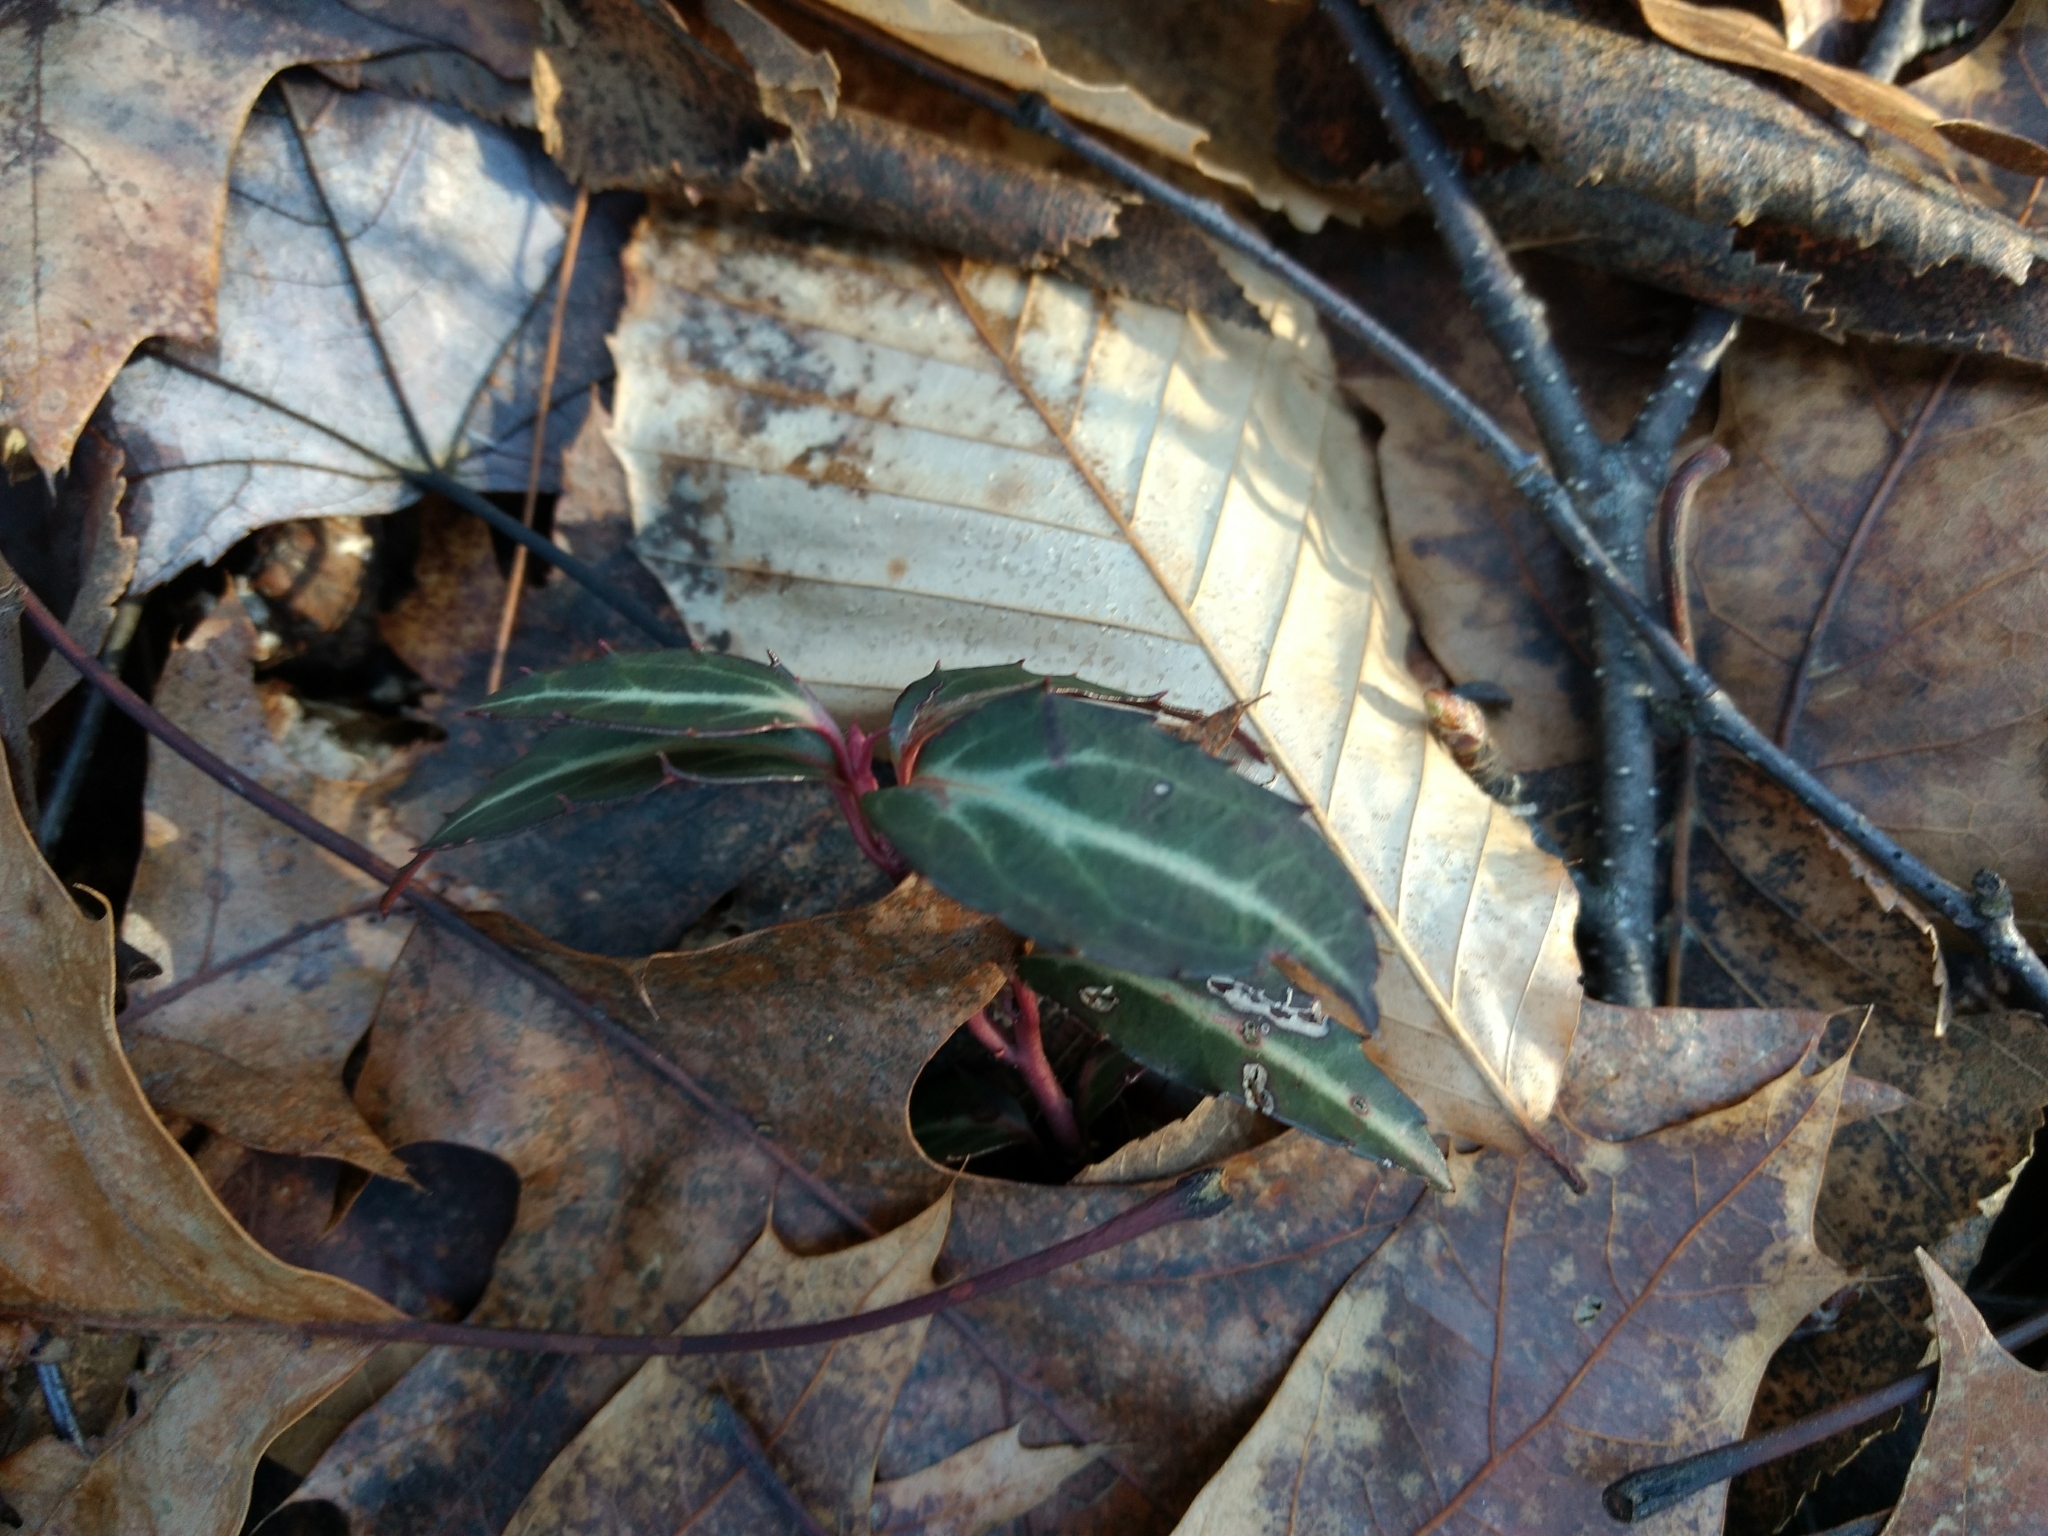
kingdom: Plantae
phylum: Tracheophyta
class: Magnoliopsida
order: Ericales
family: Ericaceae
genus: Chimaphila
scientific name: Chimaphila maculata
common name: Spotted pipsissewa
